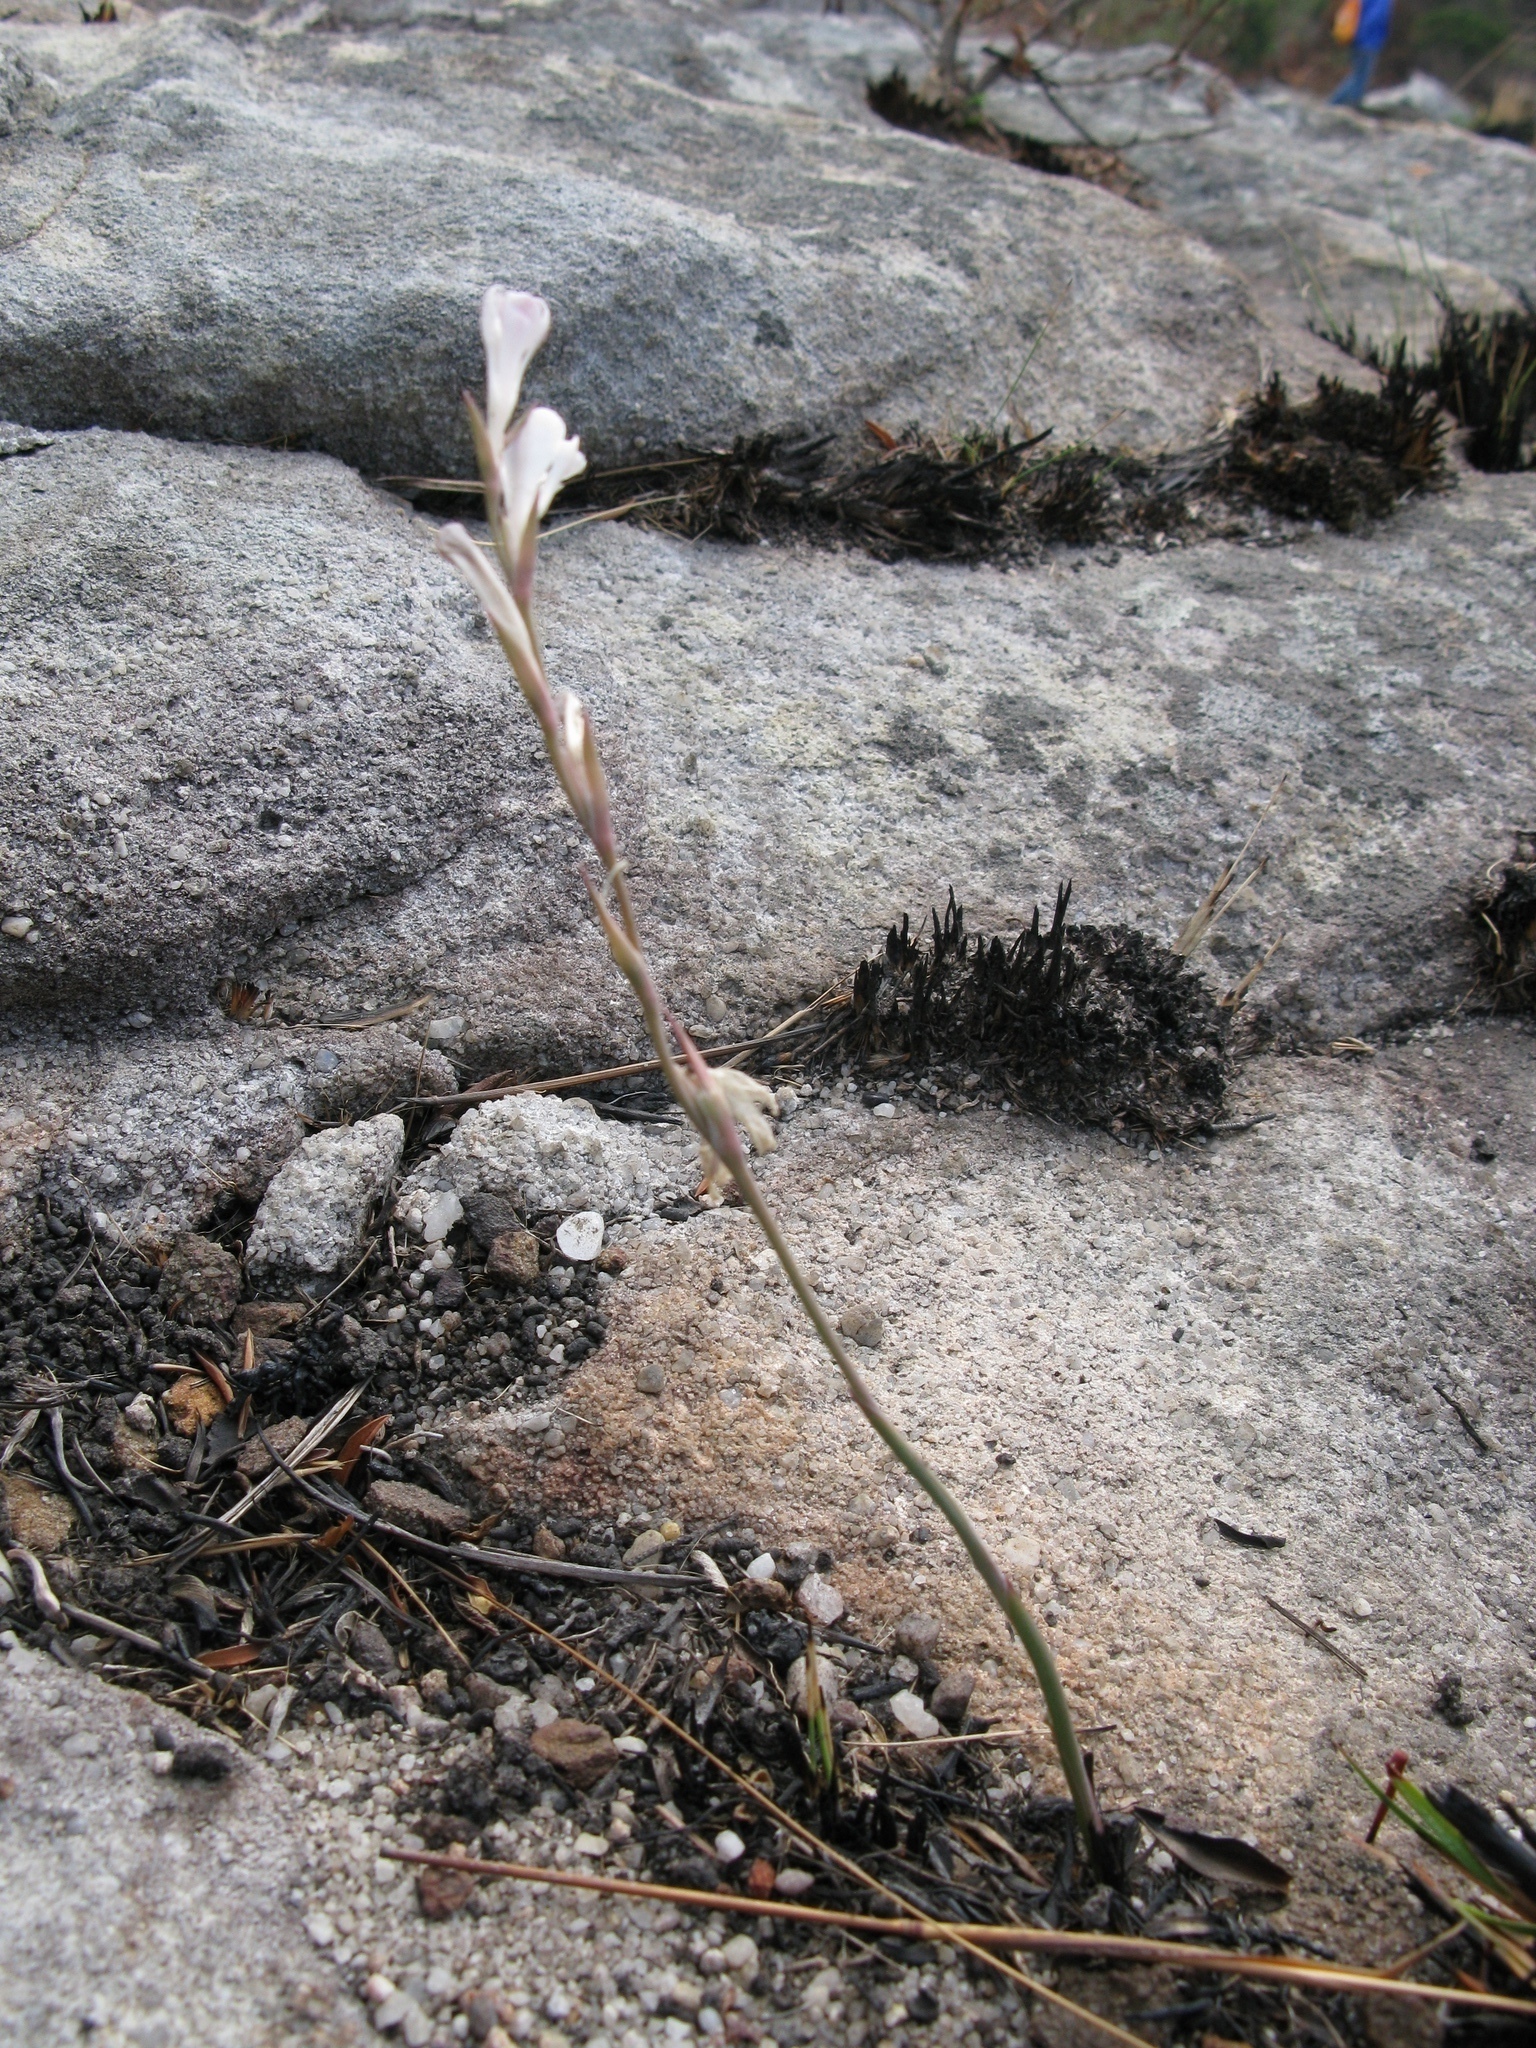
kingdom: Plantae
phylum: Tracheophyta
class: Liliopsida
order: Asparagales
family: Iridaceae
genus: Gladiolus
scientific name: Gladiolus inandensis
